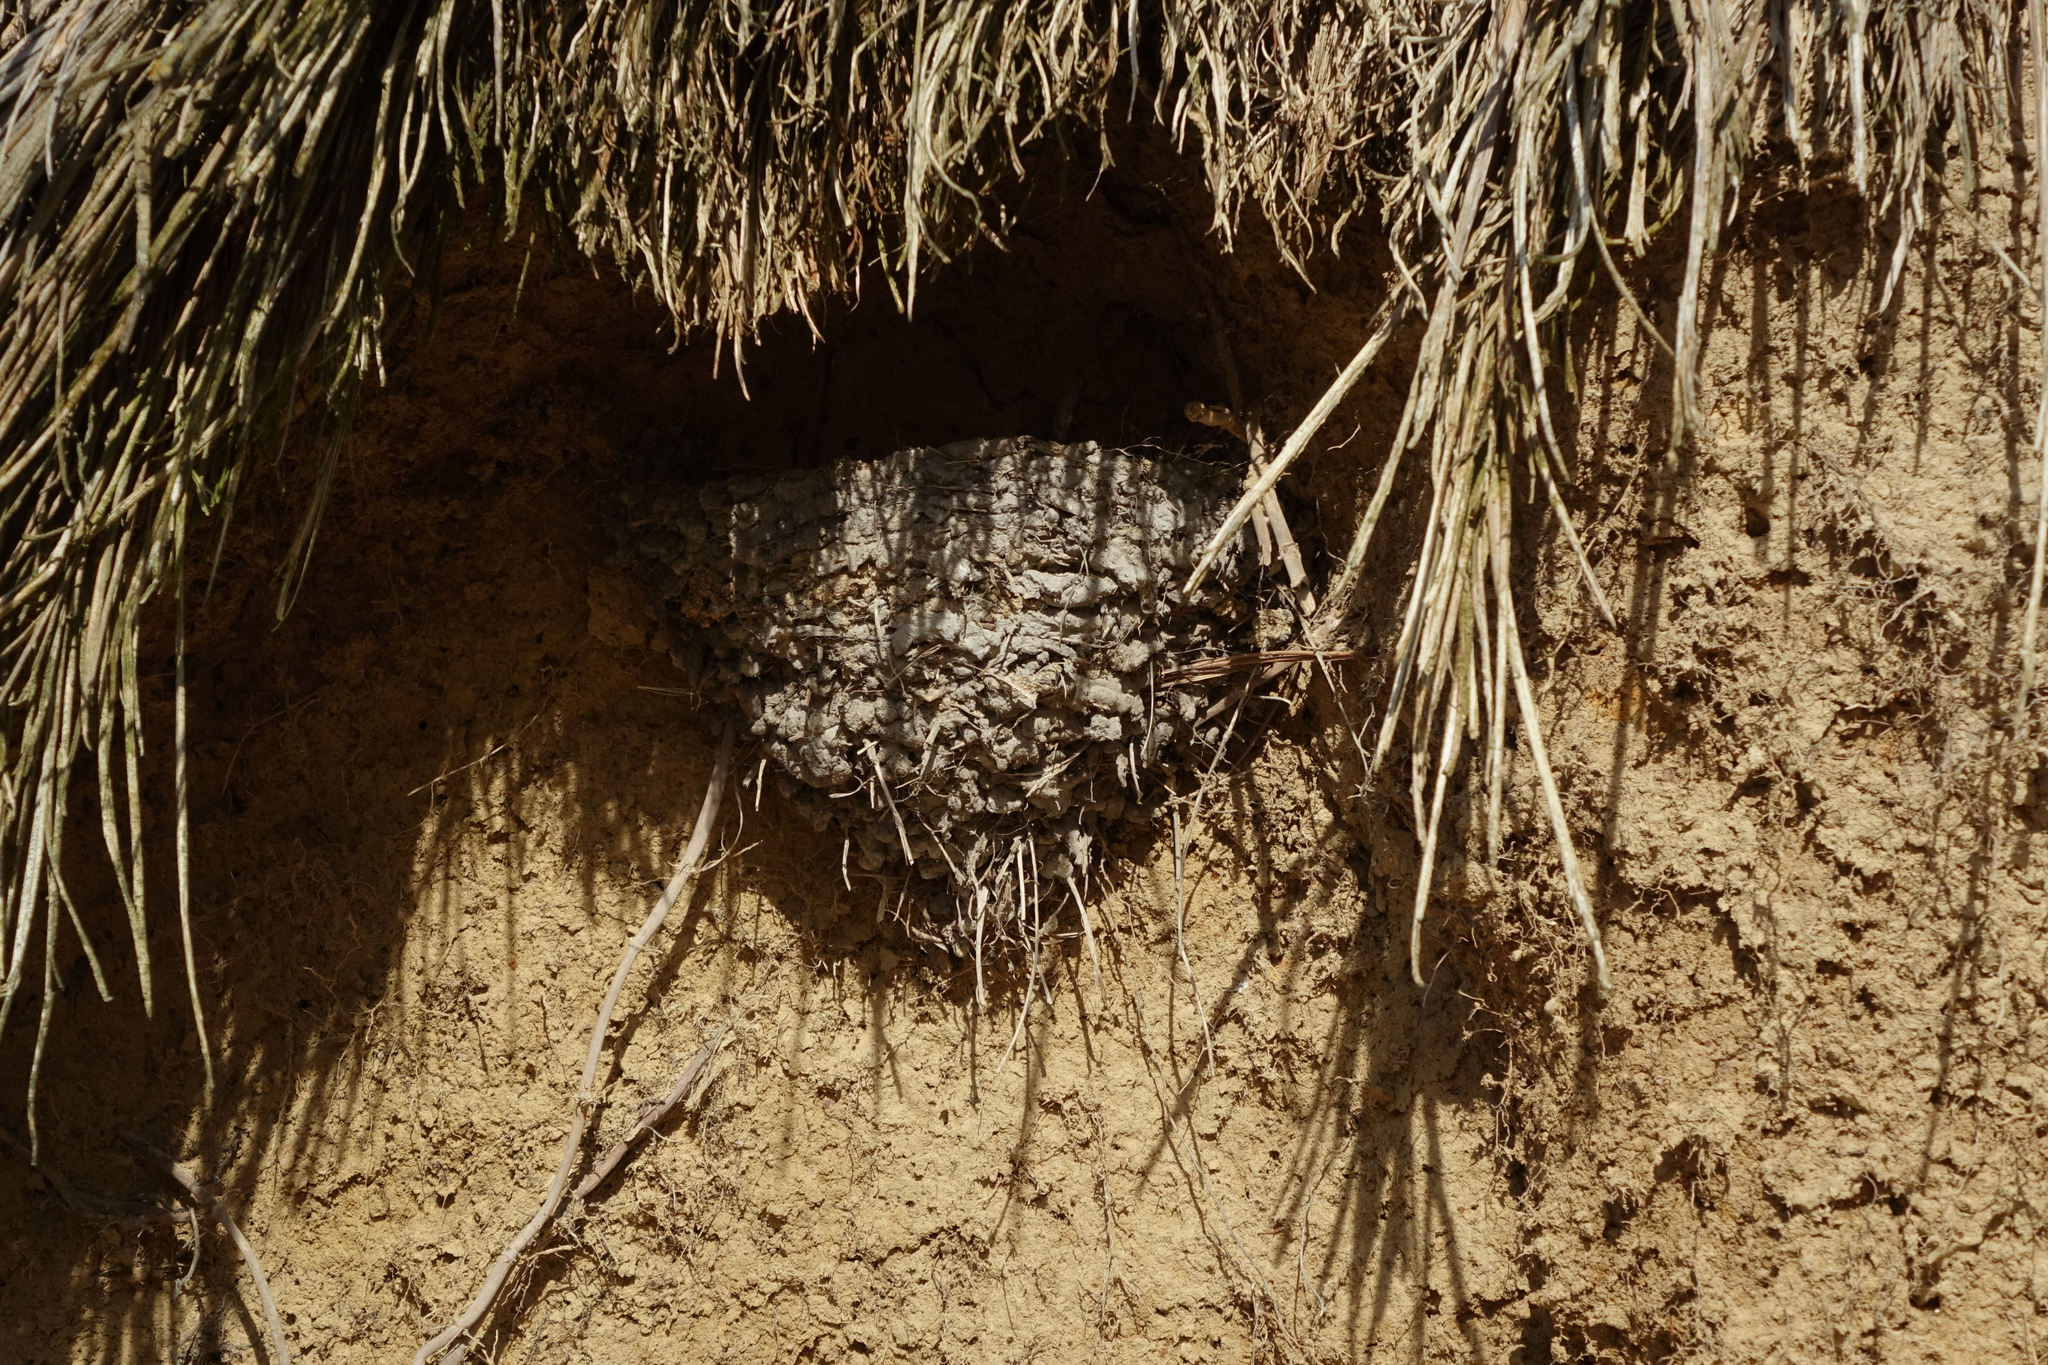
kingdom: Animalia
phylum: Chordata
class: Aves
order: Passeriformes
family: Hirundinidae
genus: Hirundo
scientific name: Hirundo neoxena
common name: Welcome swallow
